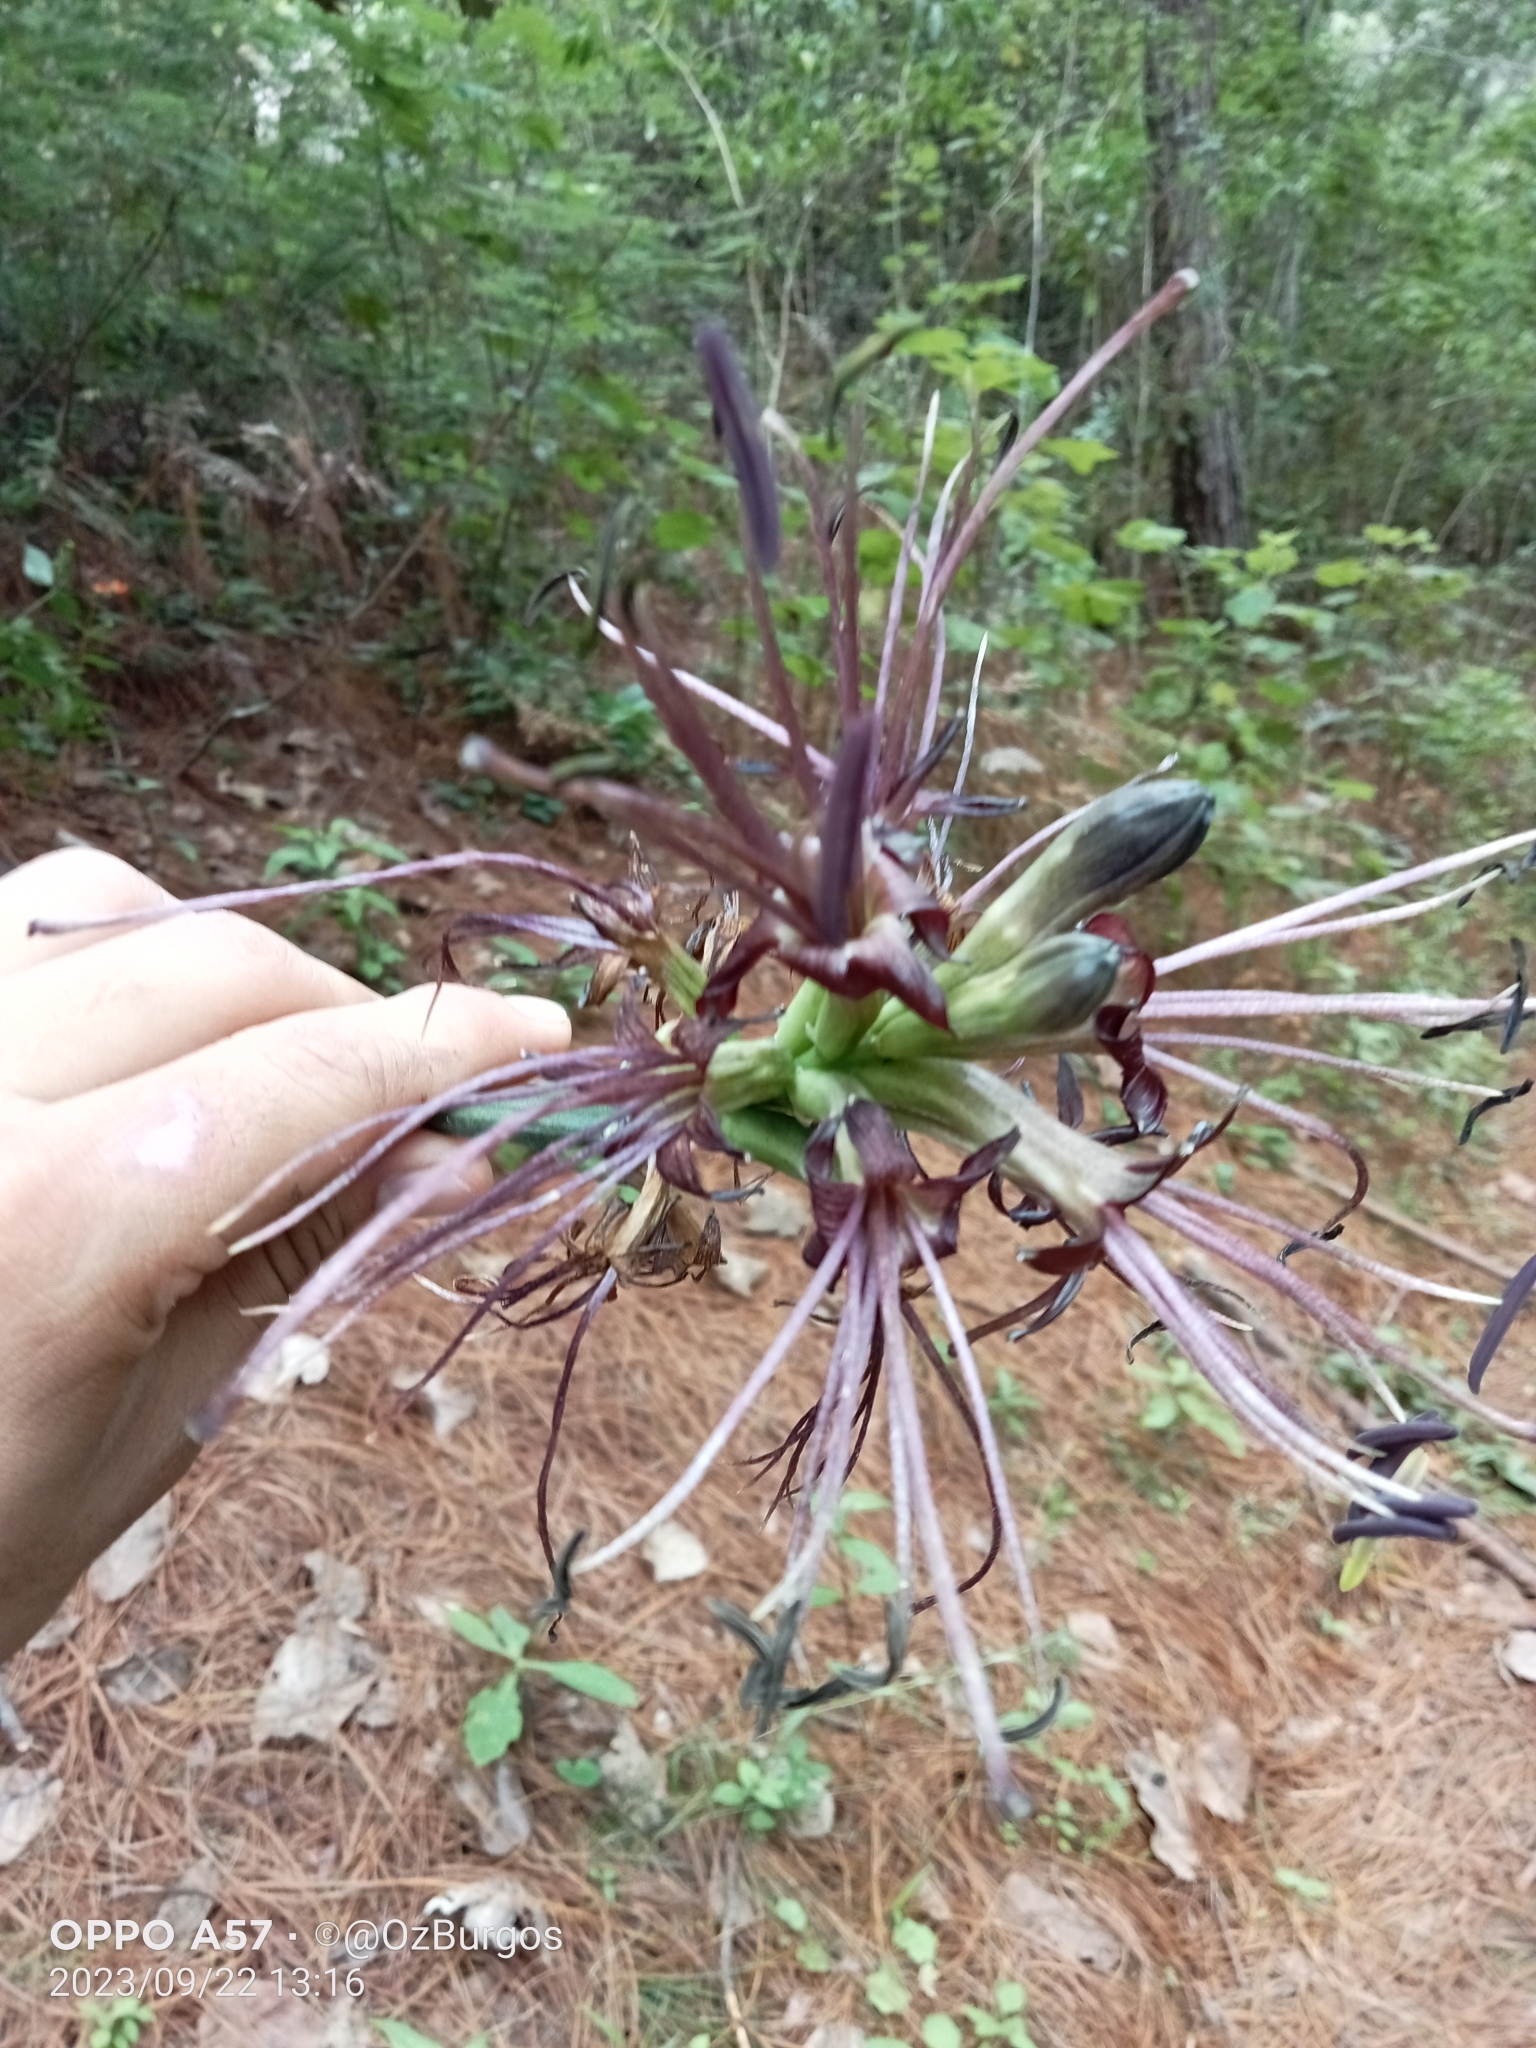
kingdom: Plantae
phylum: Tracheophyta
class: Liliopsida
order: Asparagales
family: Asparagaceae
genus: Agave
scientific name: Agave debilis
